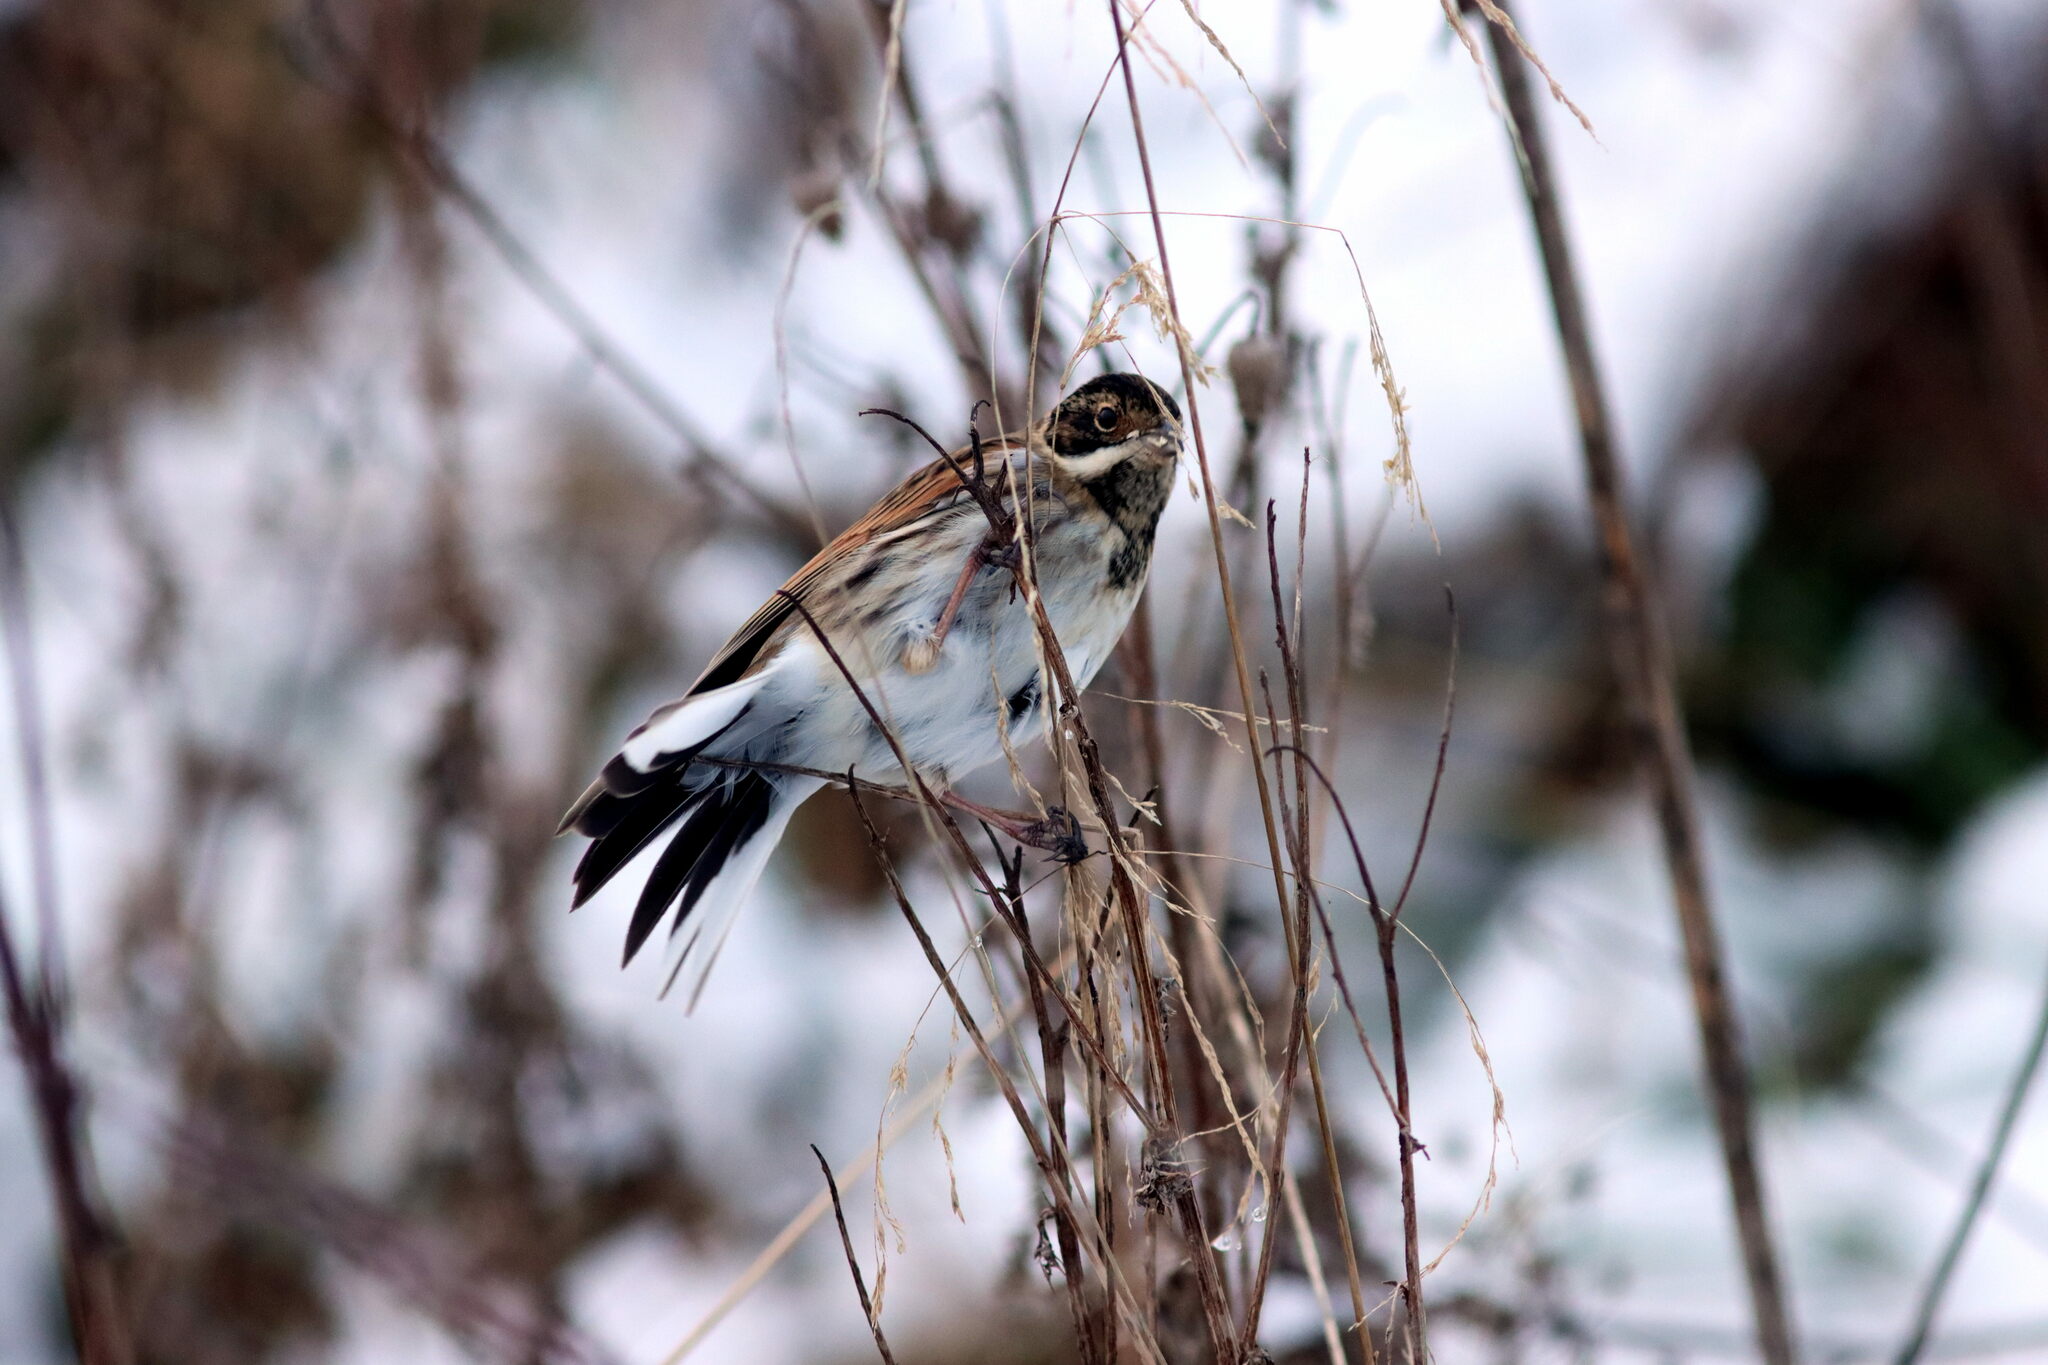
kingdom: Animalia
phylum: Chordata
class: Aves
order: Passeriformes
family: Emberizidae
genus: Emberiza
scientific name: Emberiza schoeniclus
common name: Reed bunting
